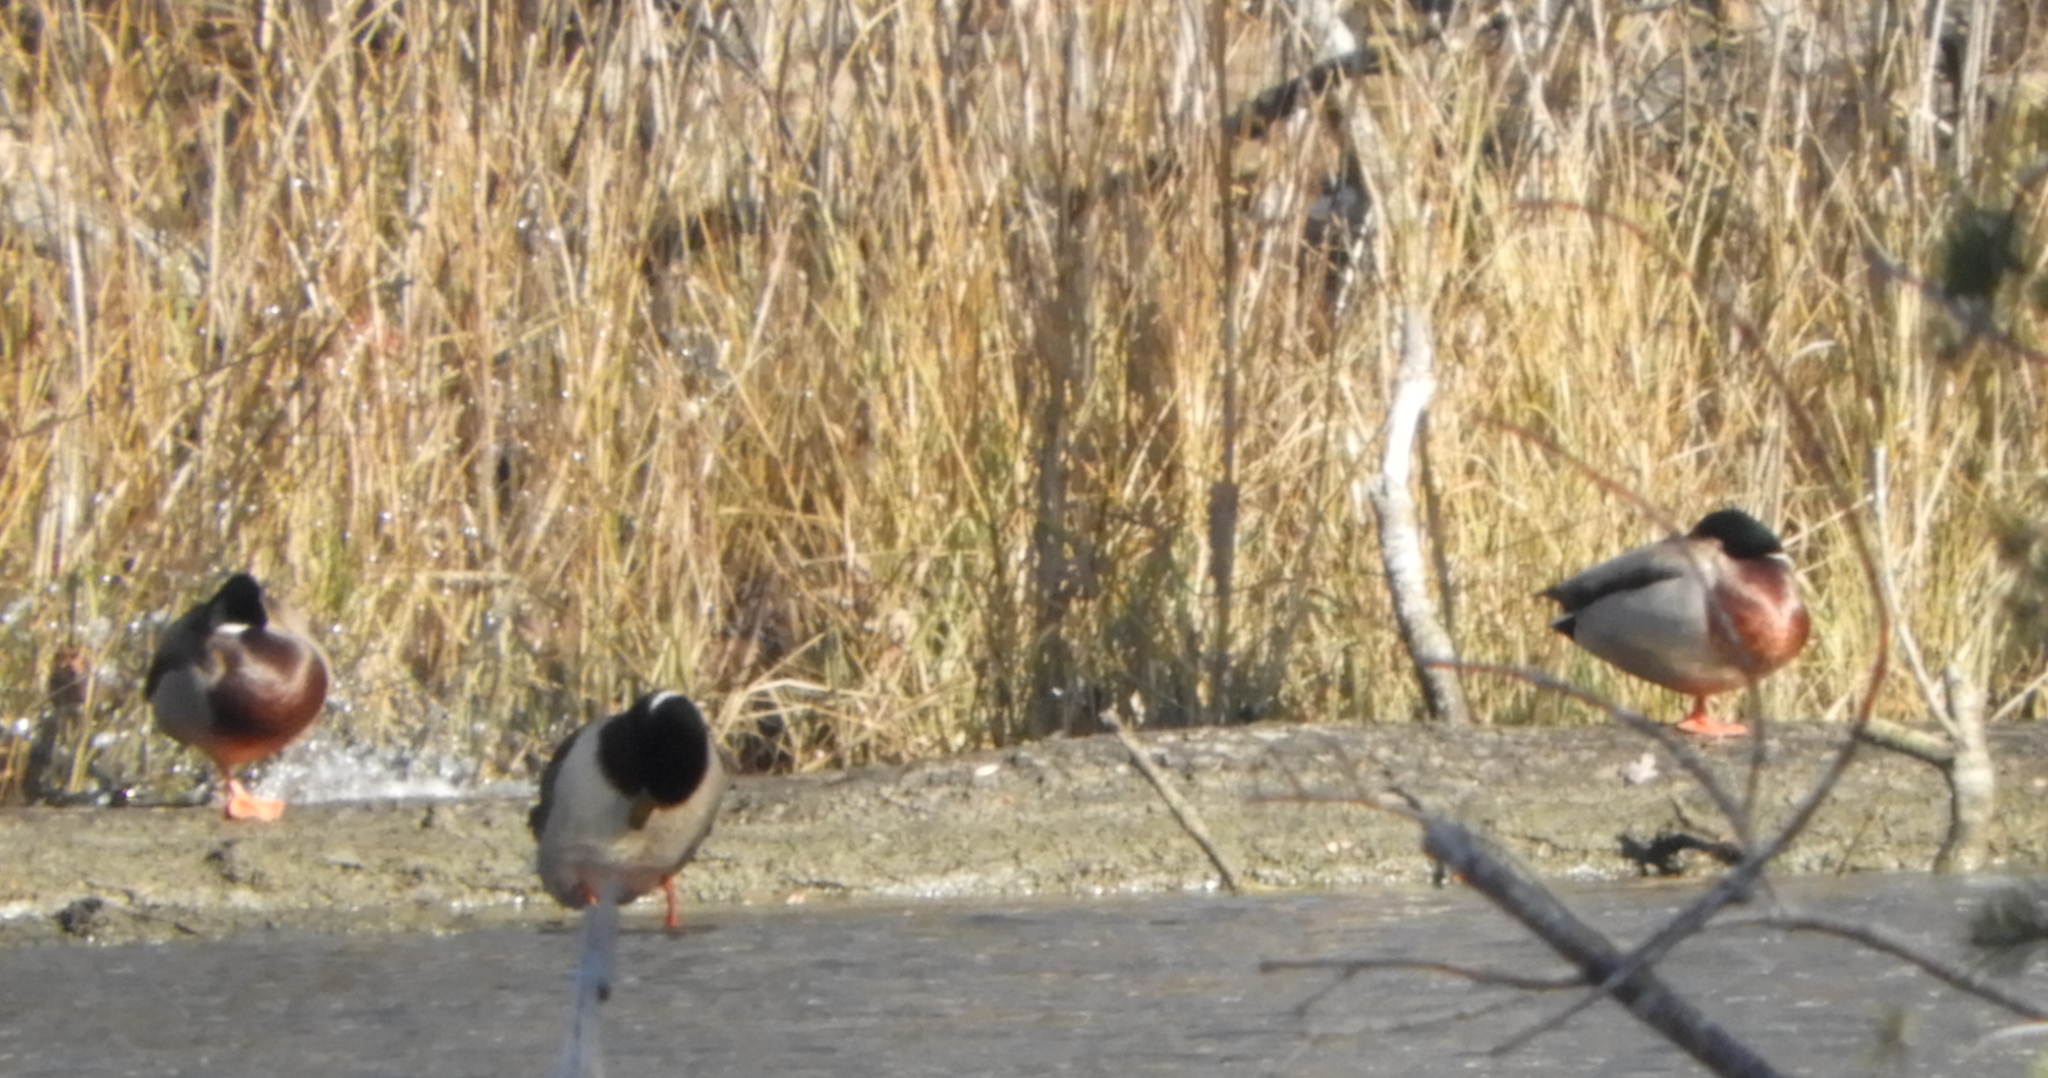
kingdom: Animalia
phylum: Chordata
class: Aves
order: Anseriformes
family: Anatidae
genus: Anas
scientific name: Anas platyrhynchos
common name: Mallard
